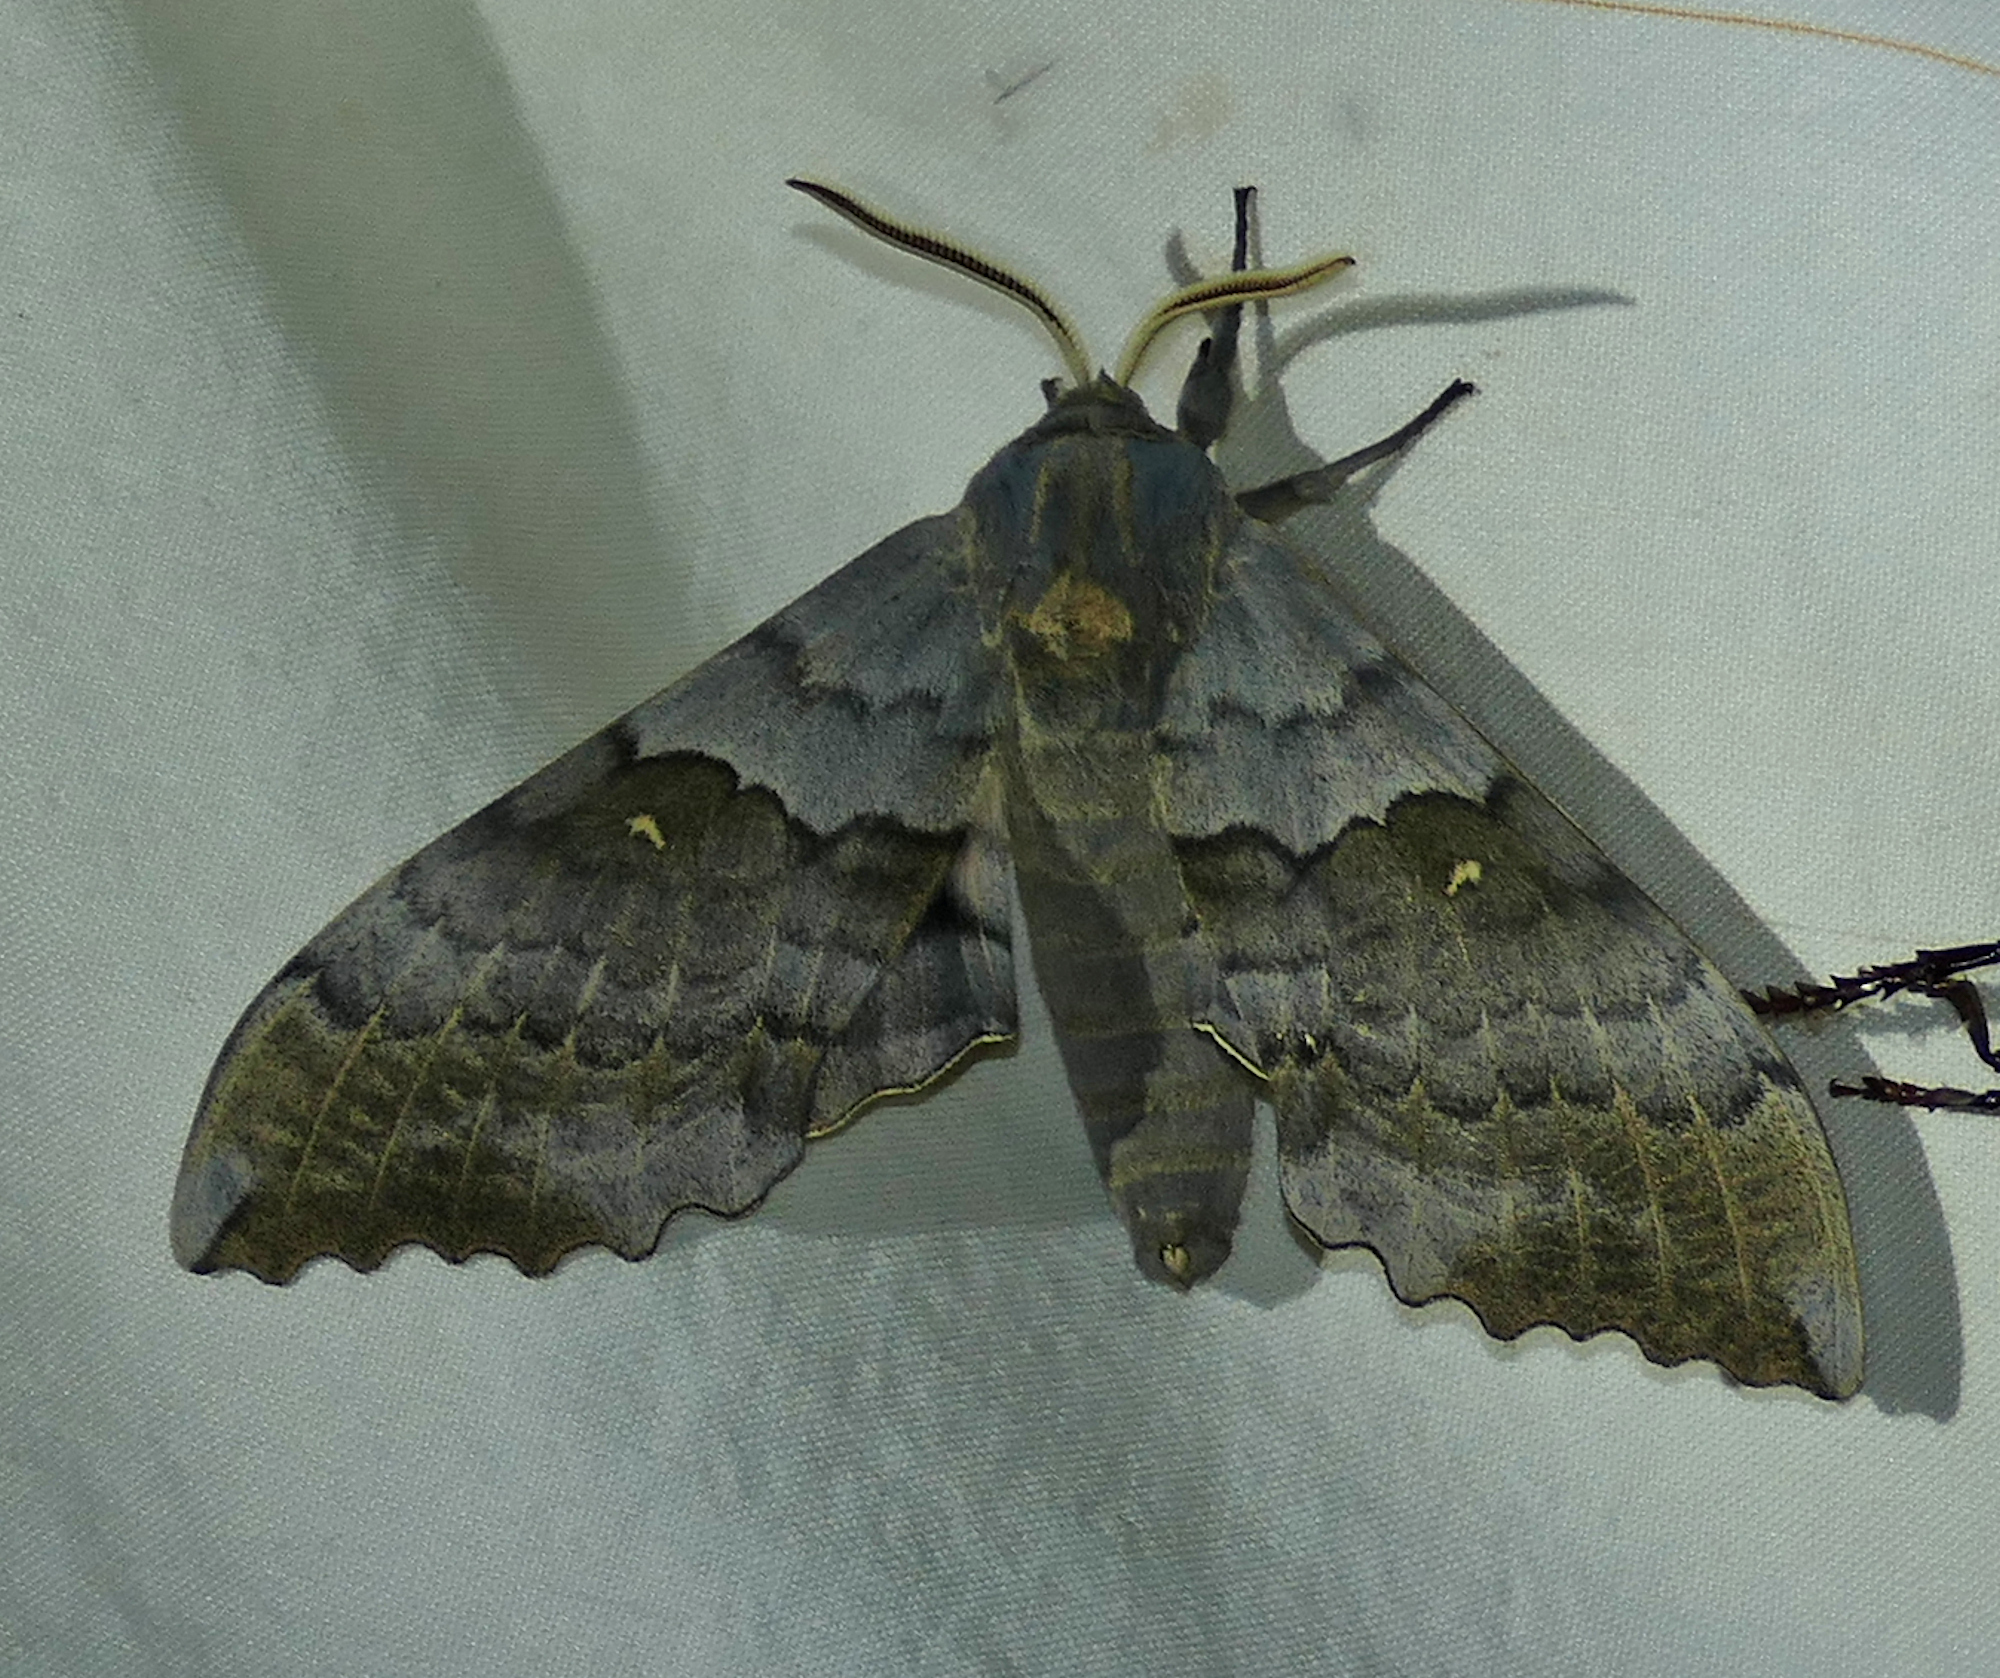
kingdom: Animalia
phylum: Arthropoda
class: Insecta
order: Lepidoptera
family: Sphingidae
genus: Pachysphinx
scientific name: Pachysphinx occidentalis
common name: Western poplar sphinx
